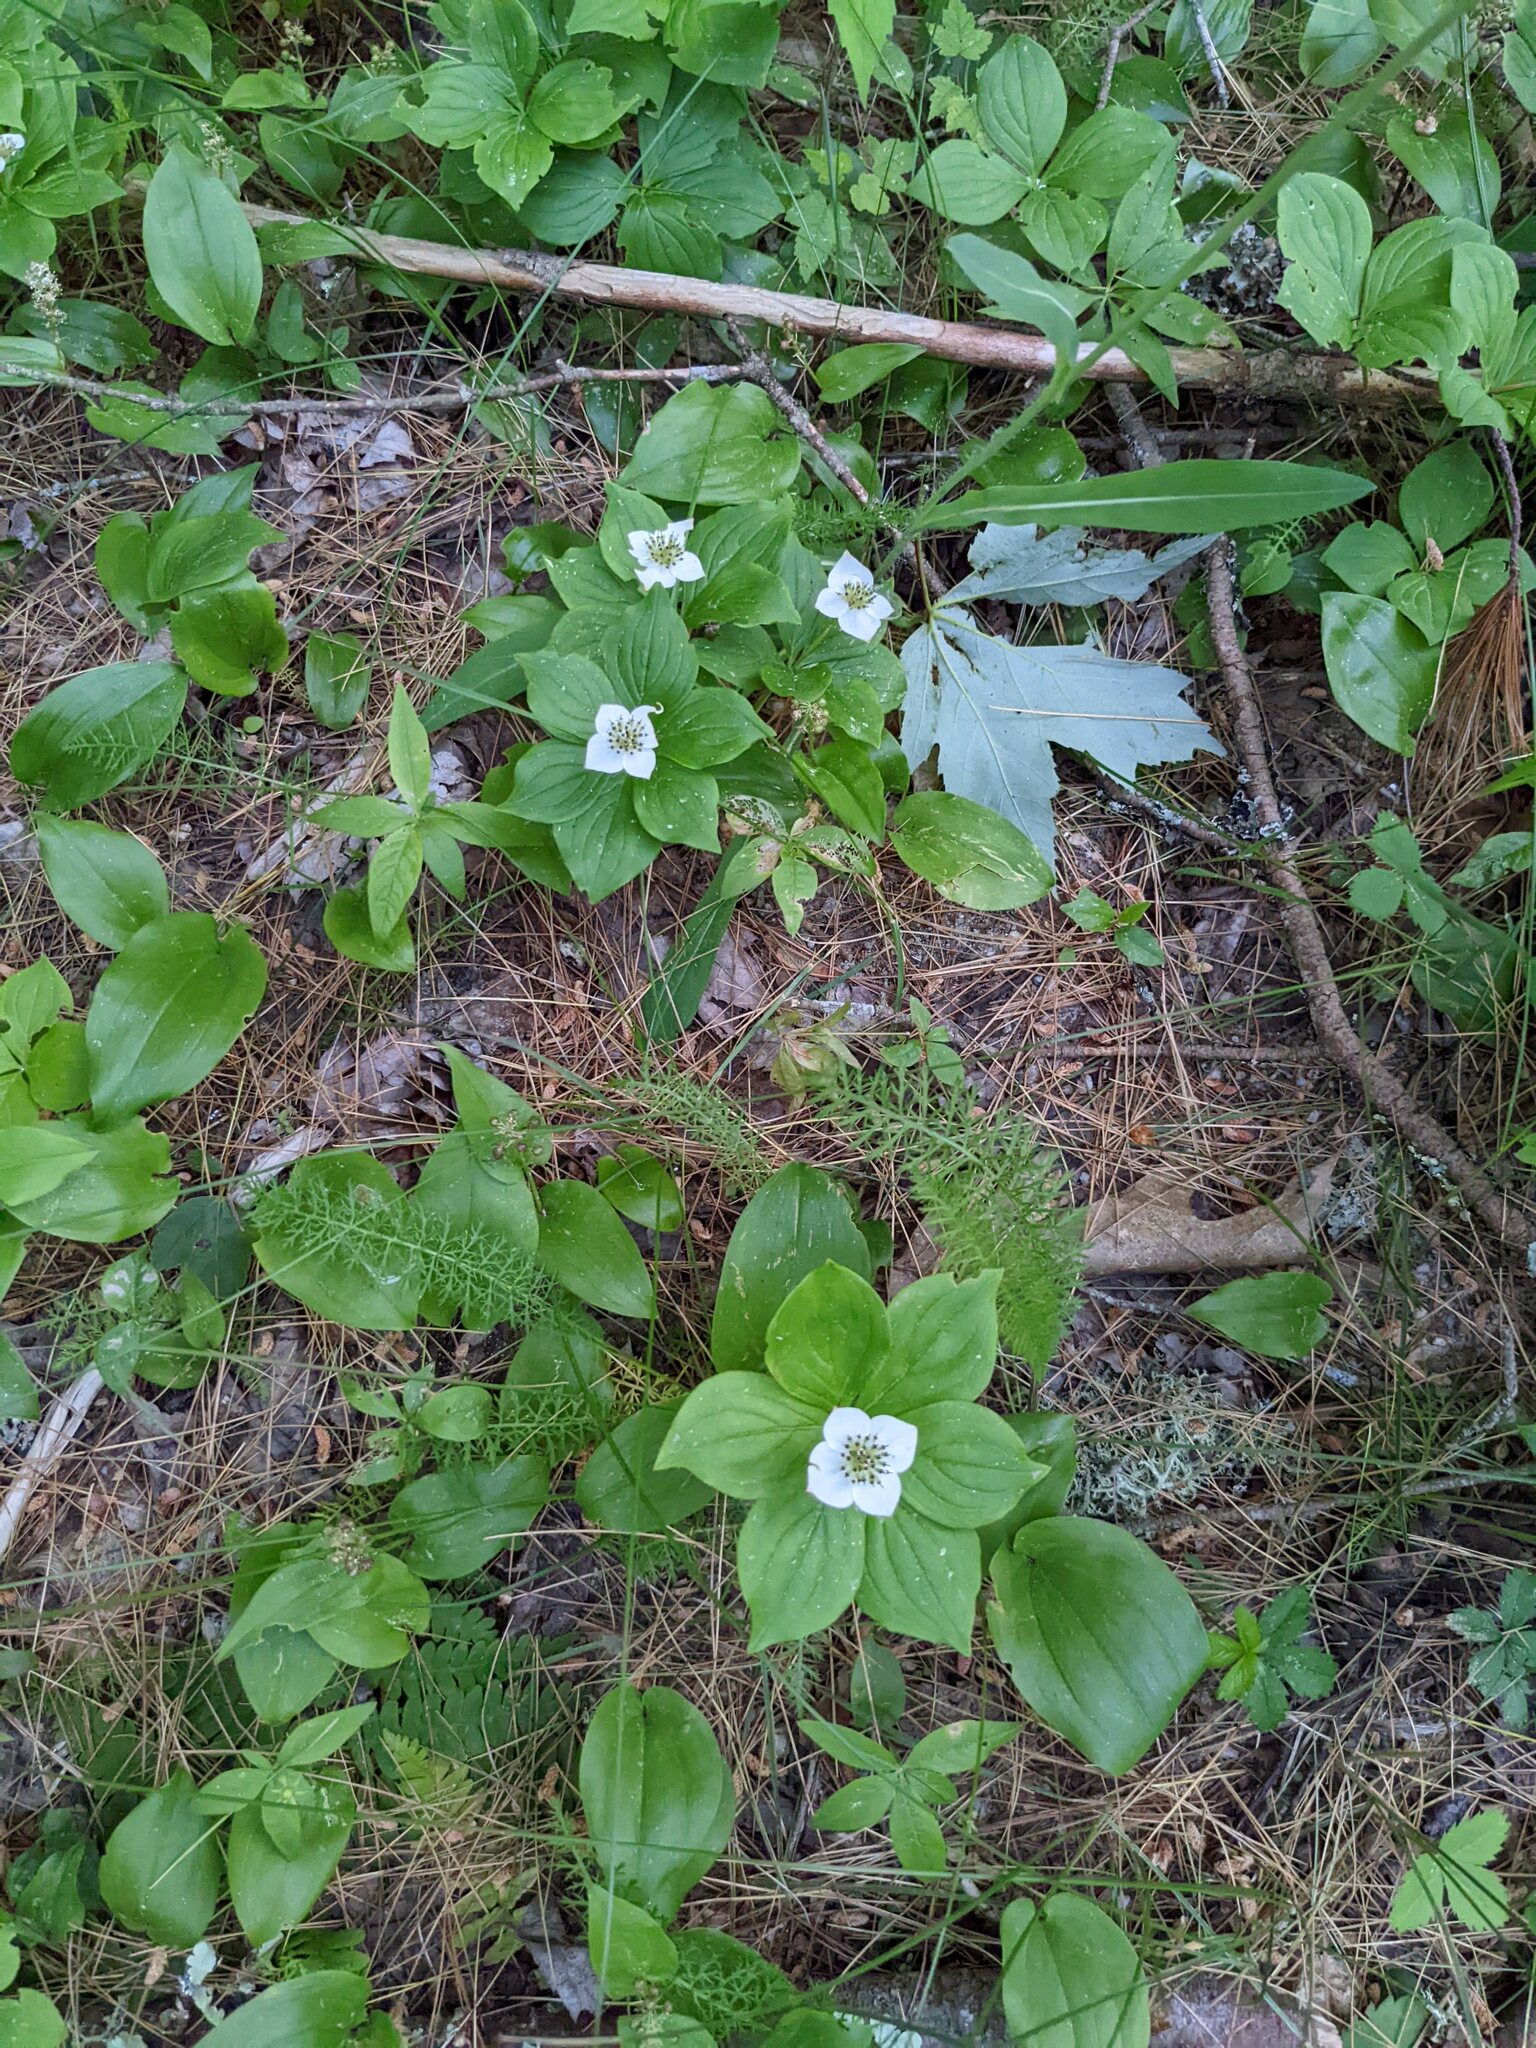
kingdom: Plantae
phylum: Tracheophyta
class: Magnoliopsida
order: Cornales
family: Cornaceae
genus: Cornus
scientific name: Cornus canadensis
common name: Creeping dogwood
